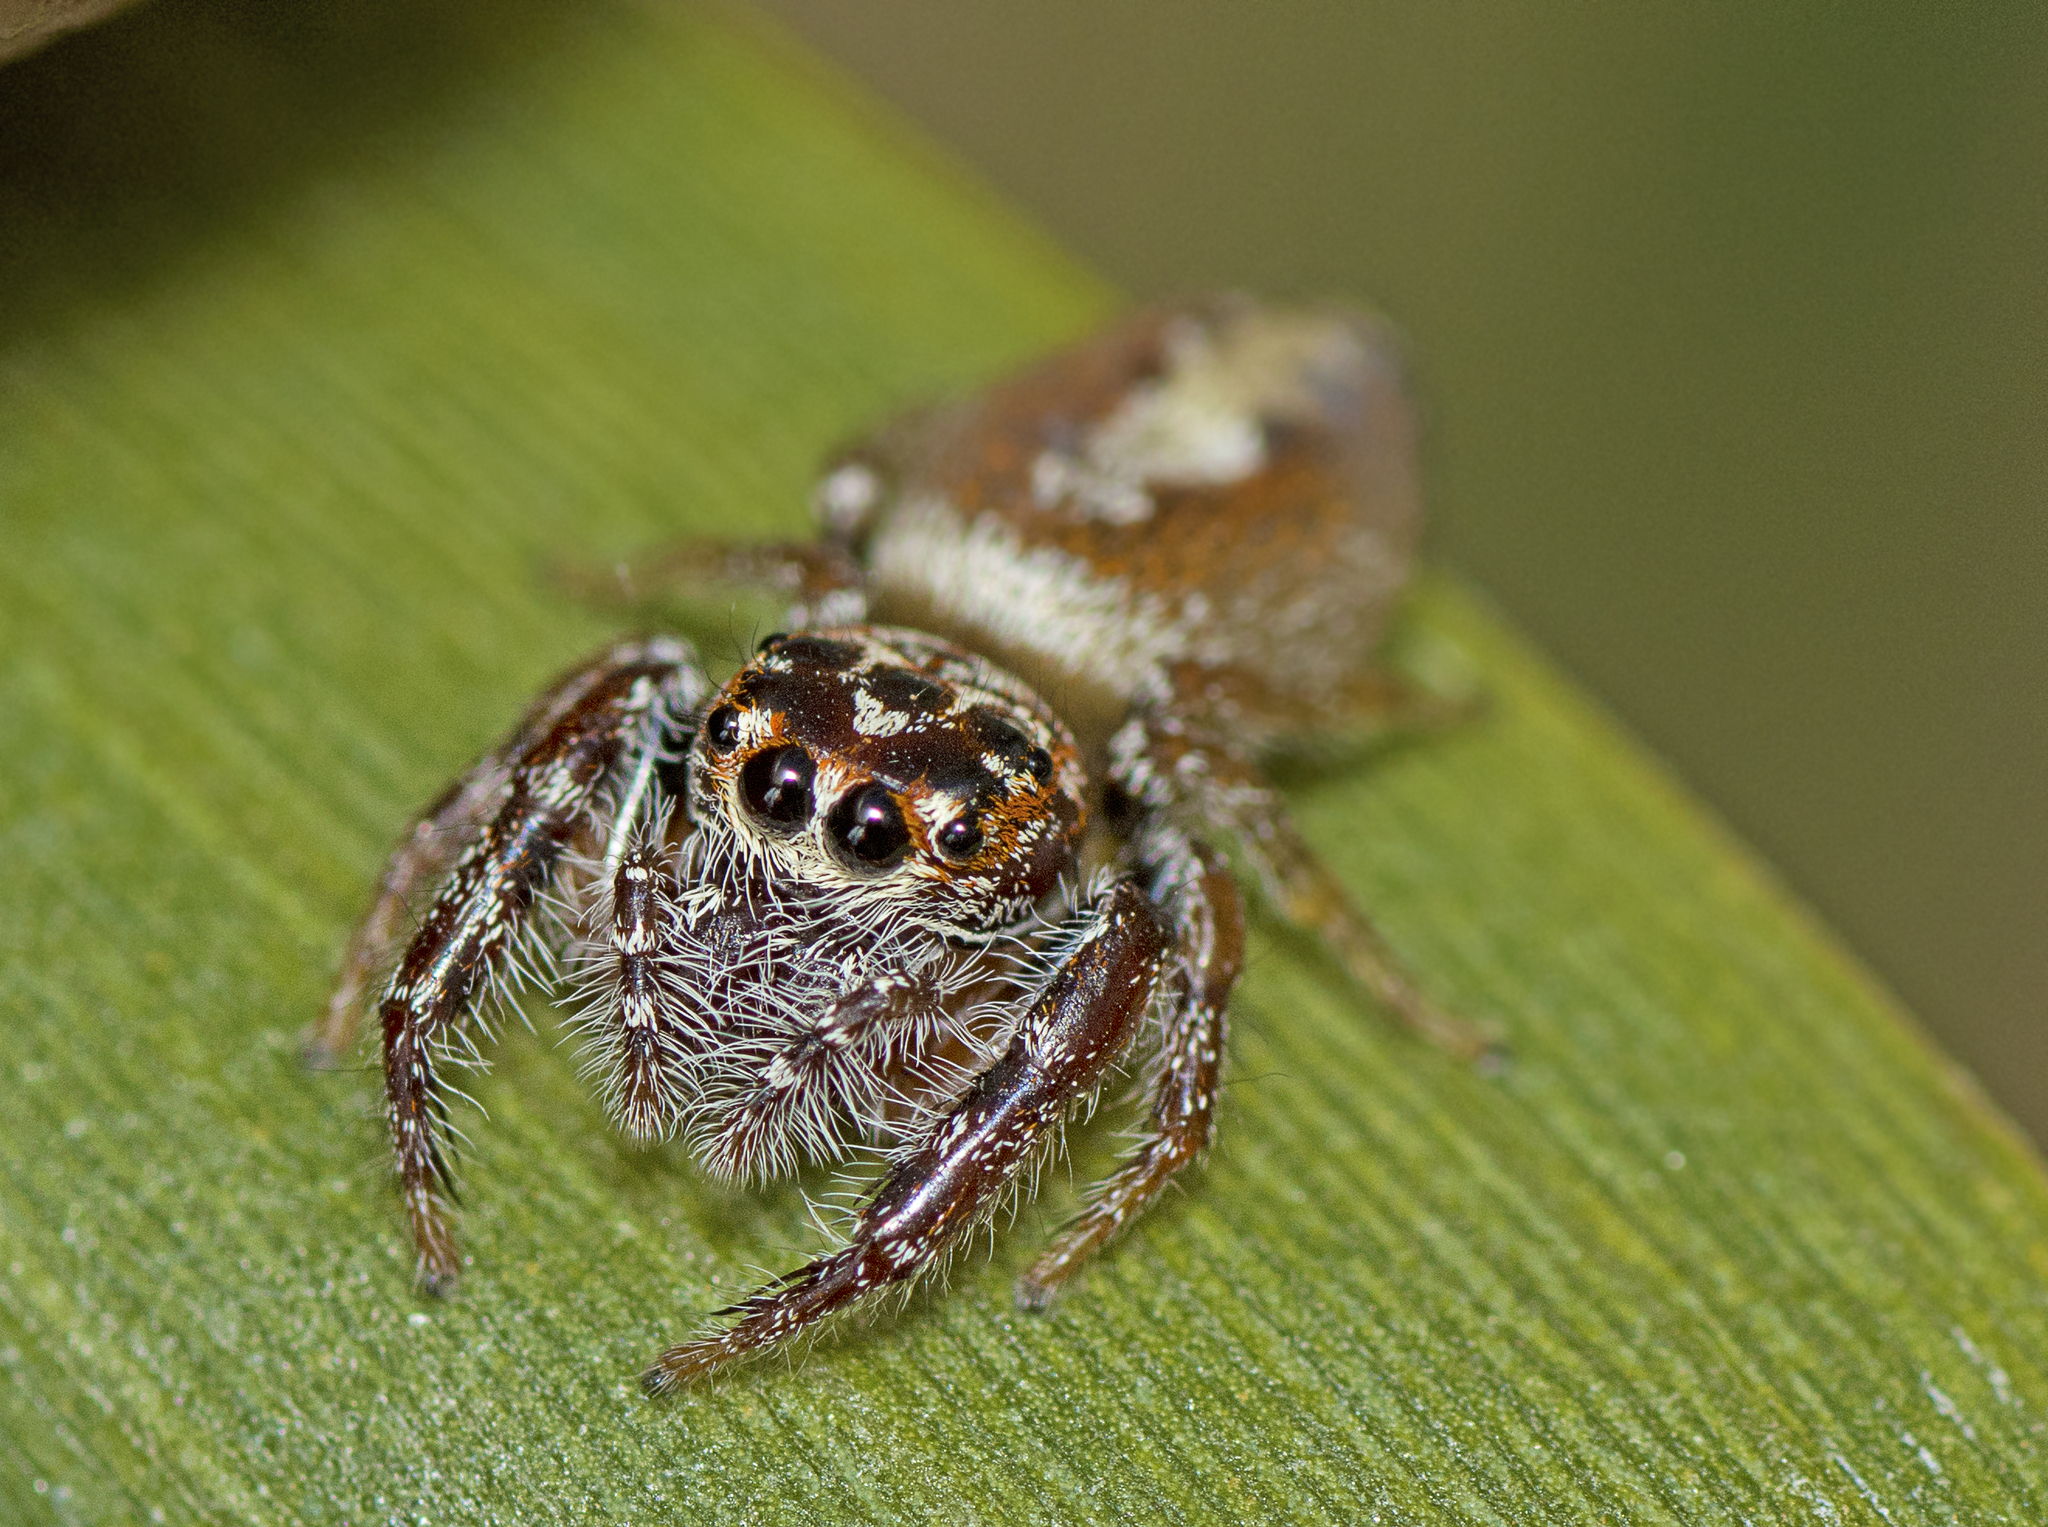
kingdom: Animalia
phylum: Arthropoda
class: Arachnida
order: Araneae
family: Salticidae
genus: Opisthoncus
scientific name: Opisthoncus alborufescens
